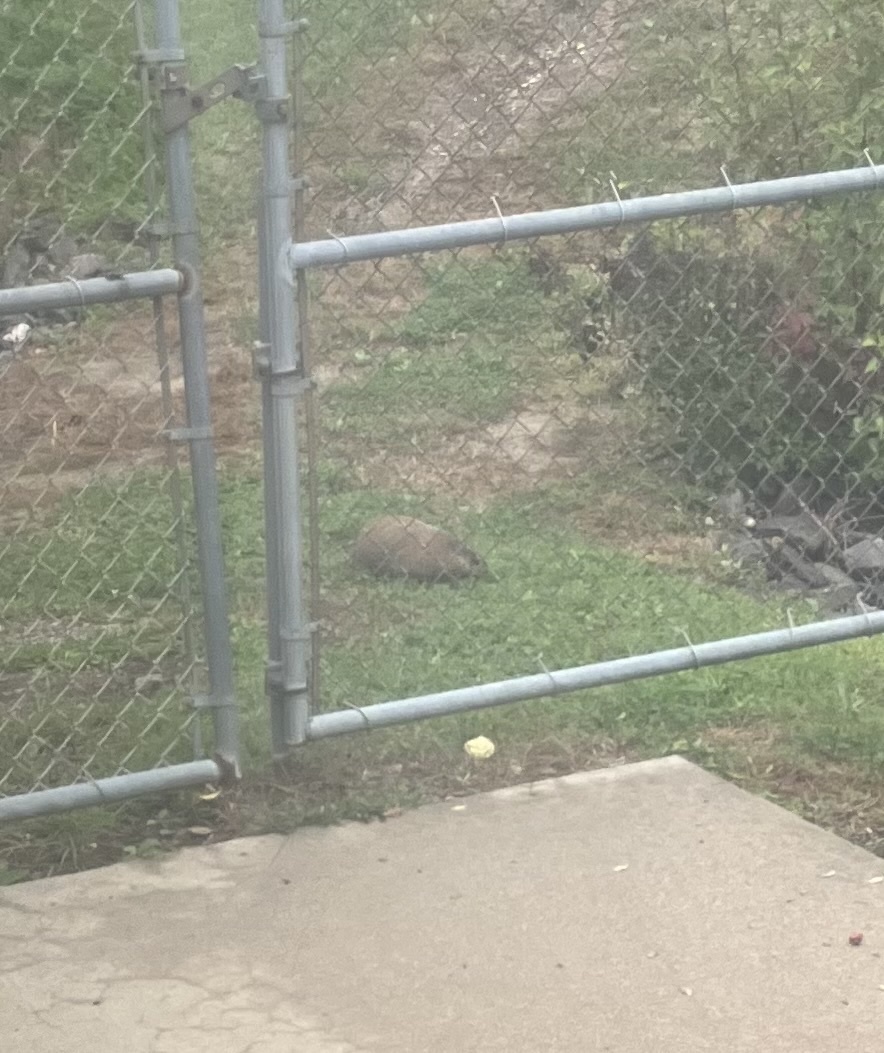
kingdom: Animalia
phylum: Chordata
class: Mammalia
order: Rodentia
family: Sciuridae
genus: Marmota
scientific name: Marmota monax
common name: Groundhog
